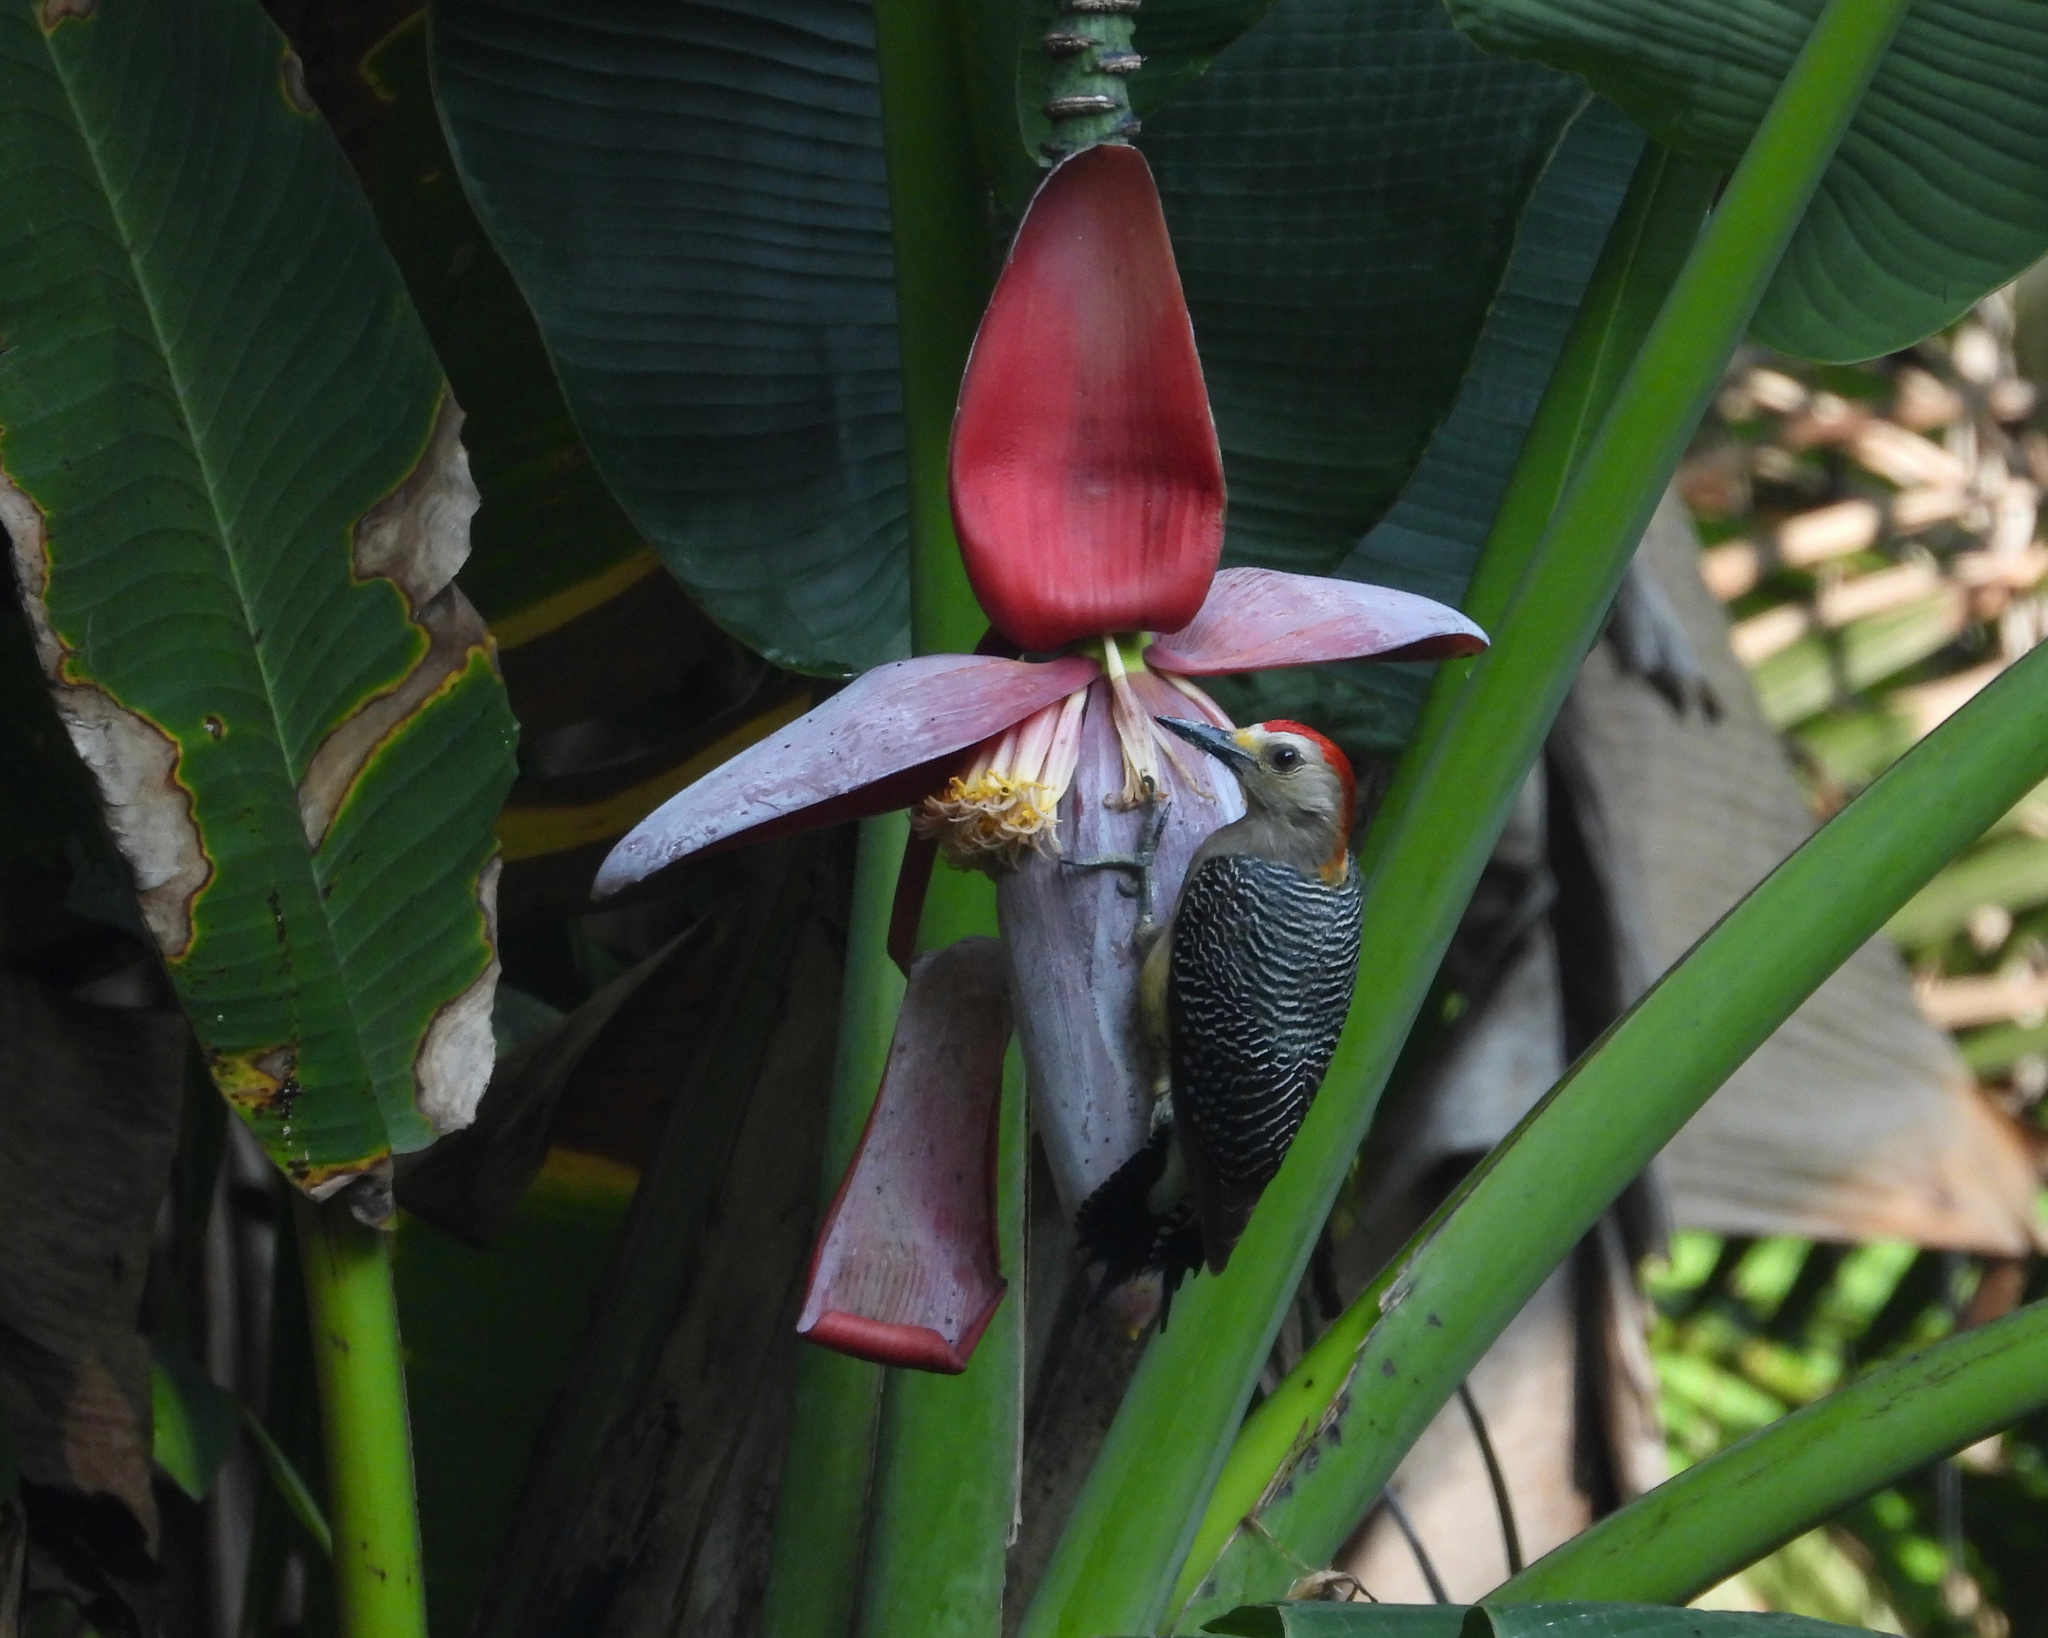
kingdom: Animalia
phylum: Chordata
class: Aves
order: Piciformes
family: Picidae
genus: Melanerpes
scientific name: Melanerpes aurifrons
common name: Golden-fronted woodpecker
